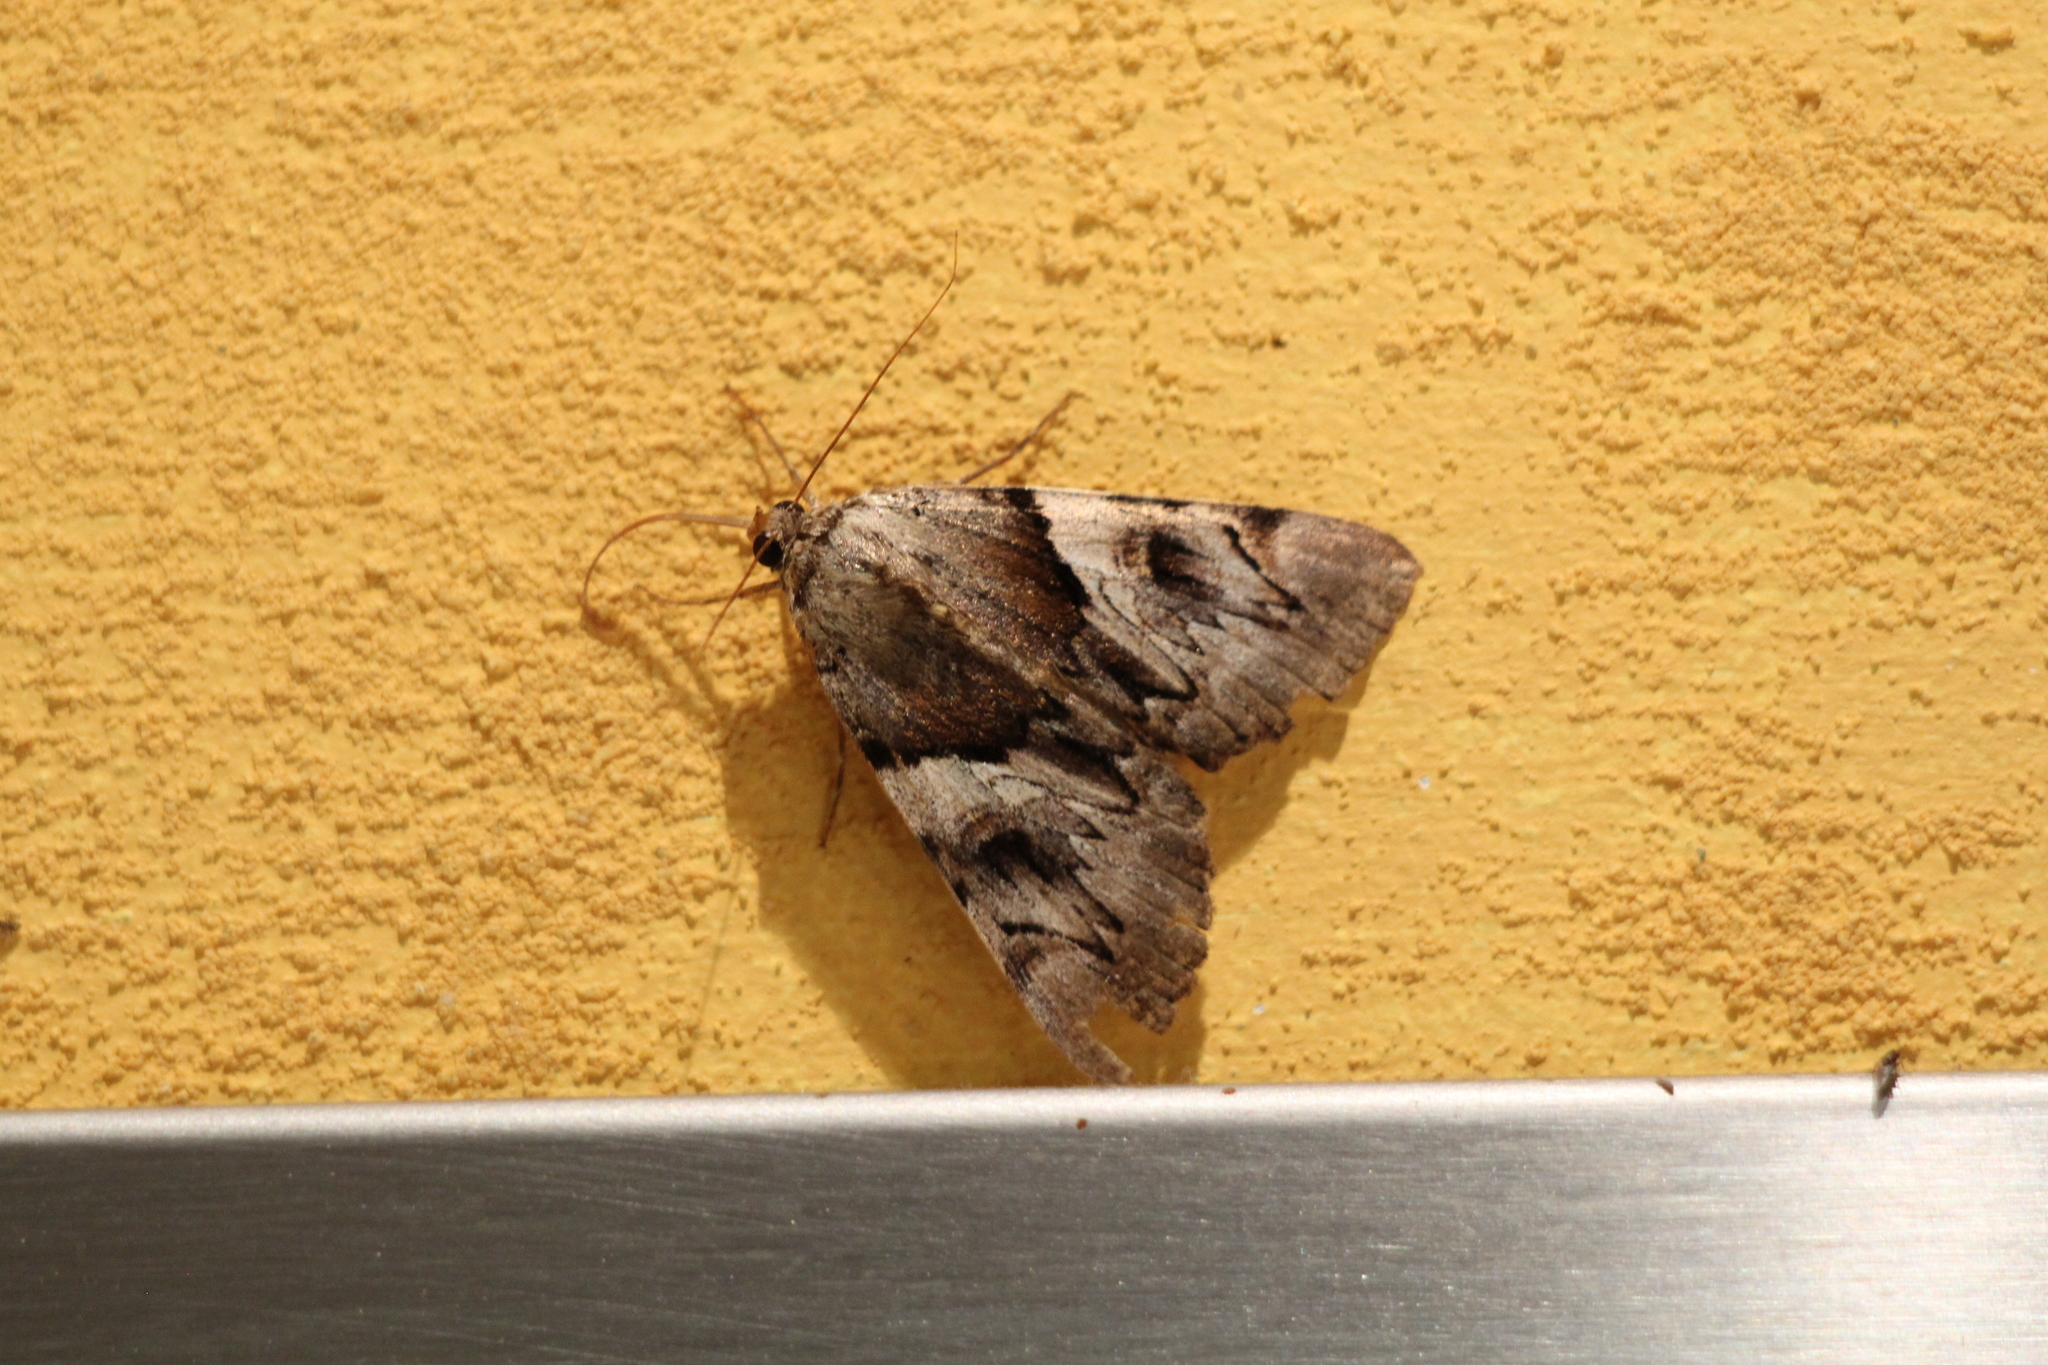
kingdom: Animalia
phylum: Arthropoda
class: Insecta
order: Lepidoptera
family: Erebidae
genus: Catocala
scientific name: Catocala fulminea
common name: Yellow bands underwing
